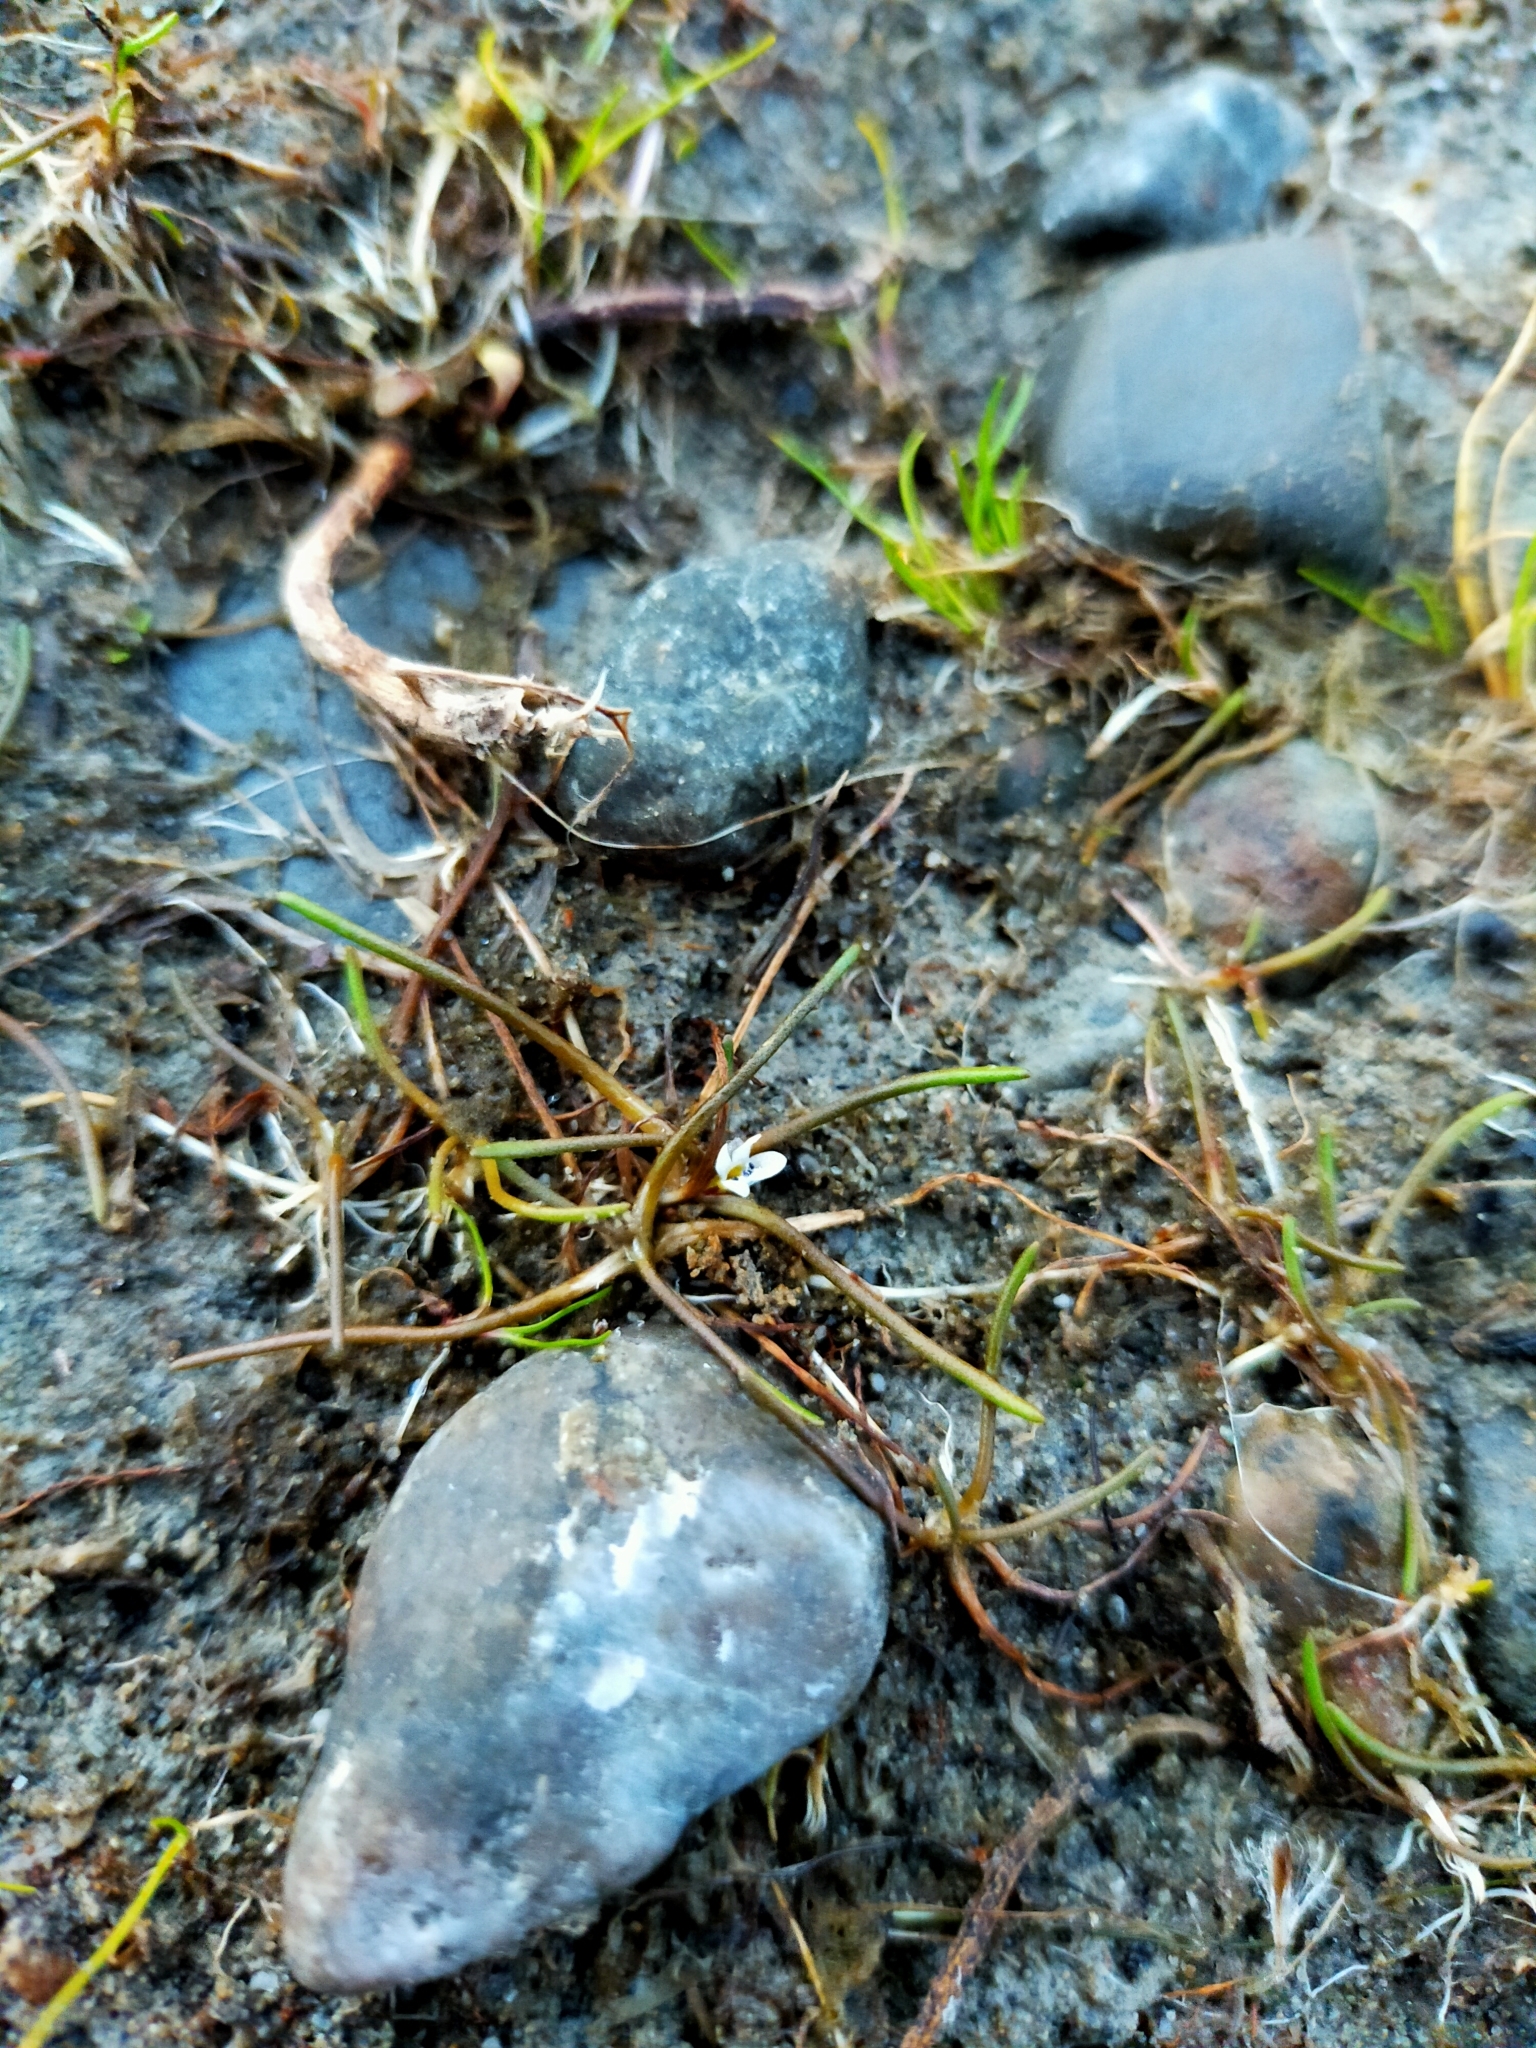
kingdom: Plantae
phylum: Tracheophyta
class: Magnoliopsida
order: Lamiales
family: Scrophulariaceae
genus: Limosella
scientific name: Limosella australis
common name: Welsh mudwort
